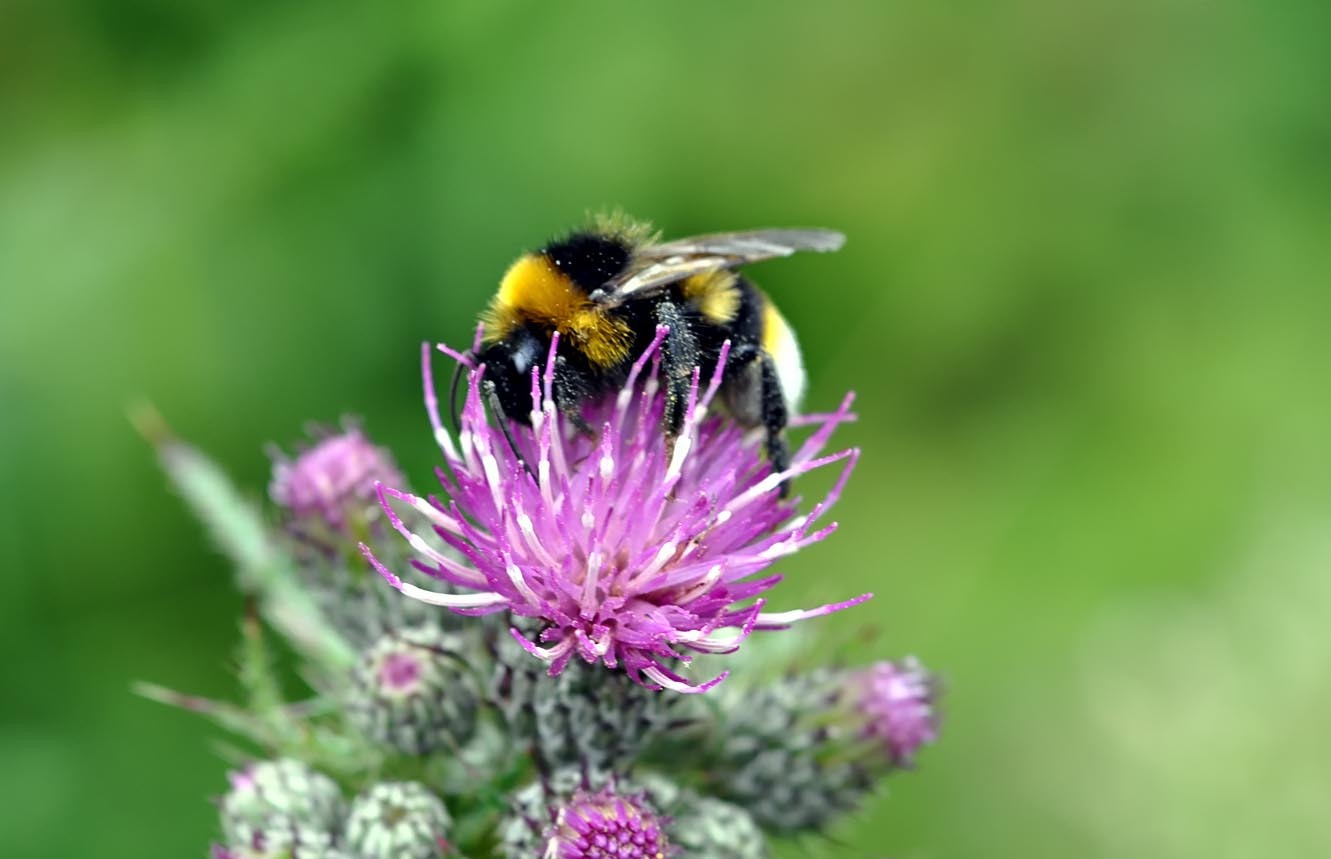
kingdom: Animalia
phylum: Arthropoda
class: Insecta
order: Hymenoptera
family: Apidae
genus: Bombus
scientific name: Bombus vestalis
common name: Vestal cuckoo bee
